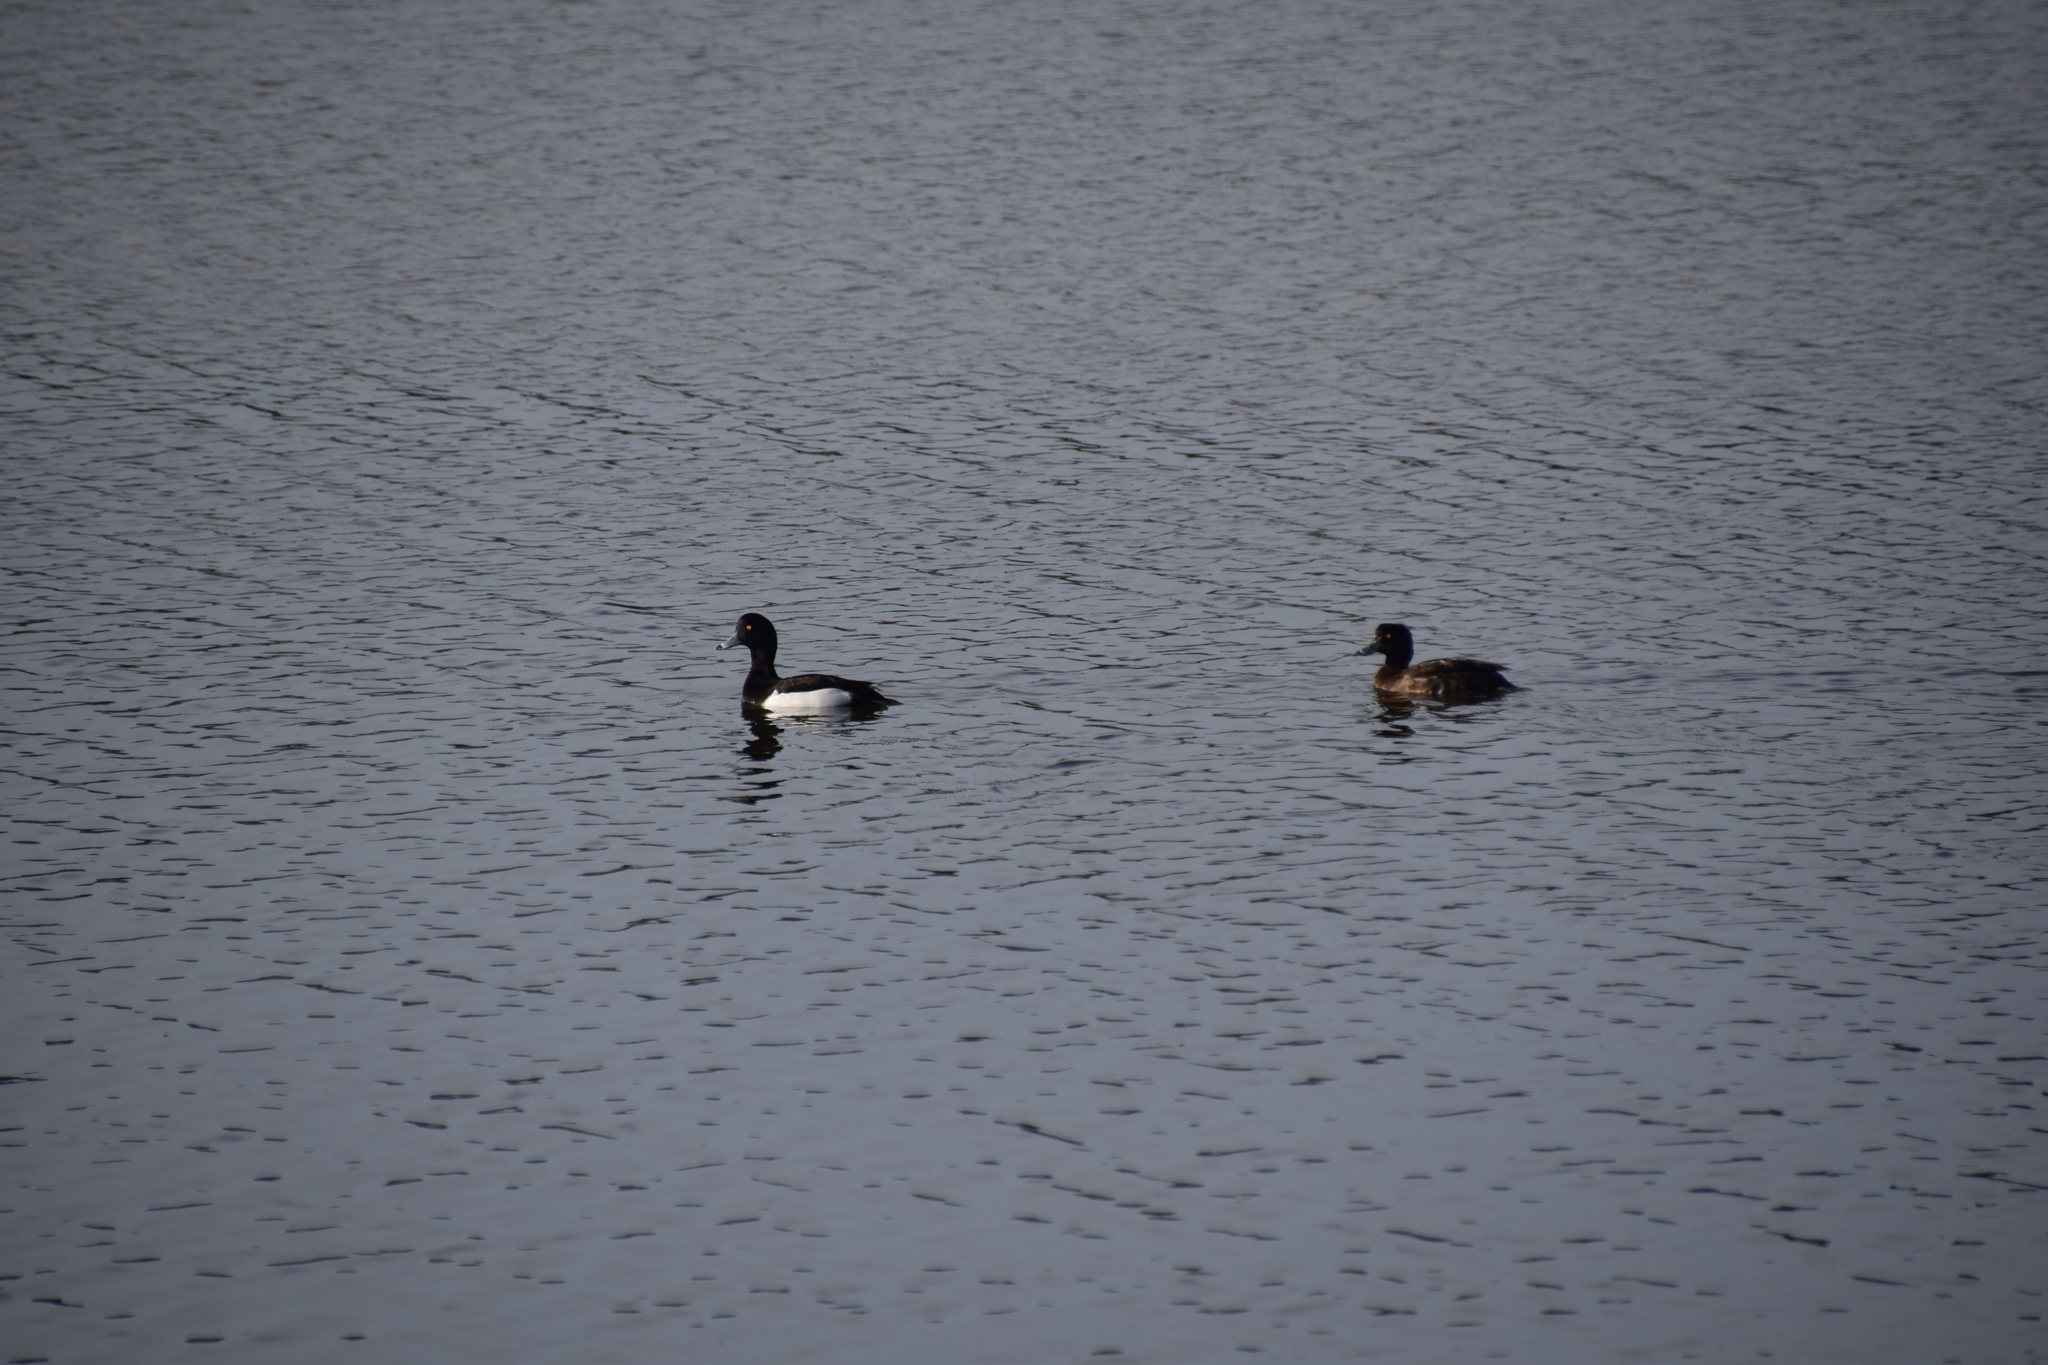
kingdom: Animalia
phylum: Chordata
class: Aves
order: Anseriformes
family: Anatidae
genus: Aythya
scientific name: Aythya fuligula
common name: Tufted duck
